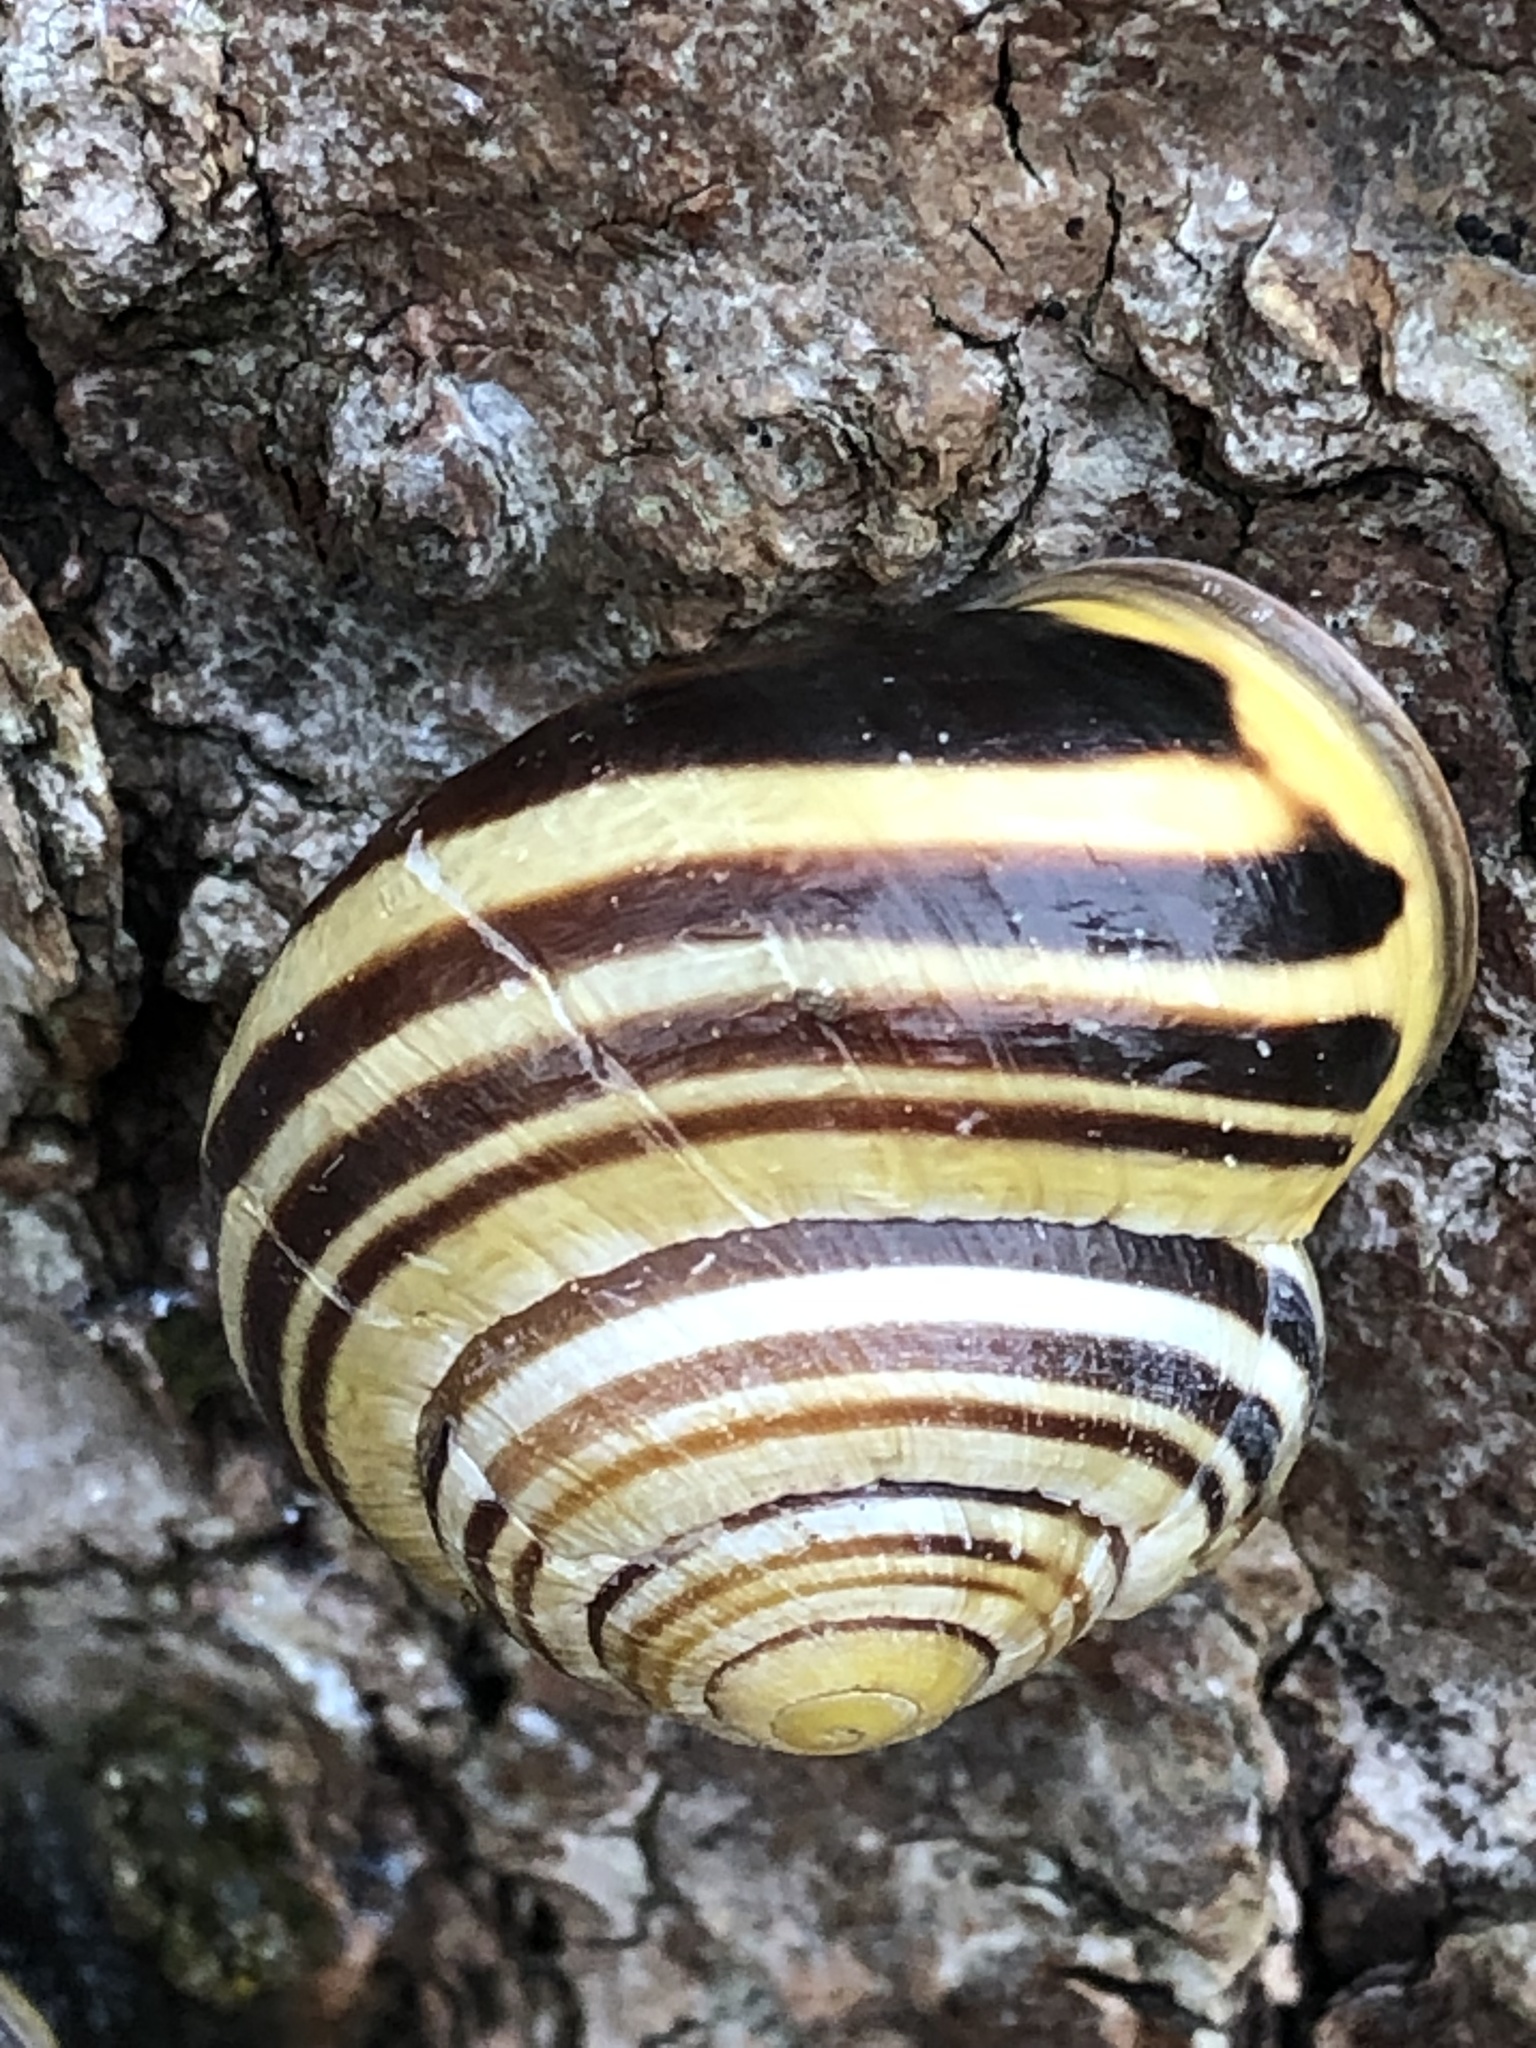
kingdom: Animalia
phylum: Mollusca
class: Gastropoda
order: Stylommatophora
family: Helicidae
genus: Cepaea
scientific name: Cepaea nemoralis
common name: Grovesnail
